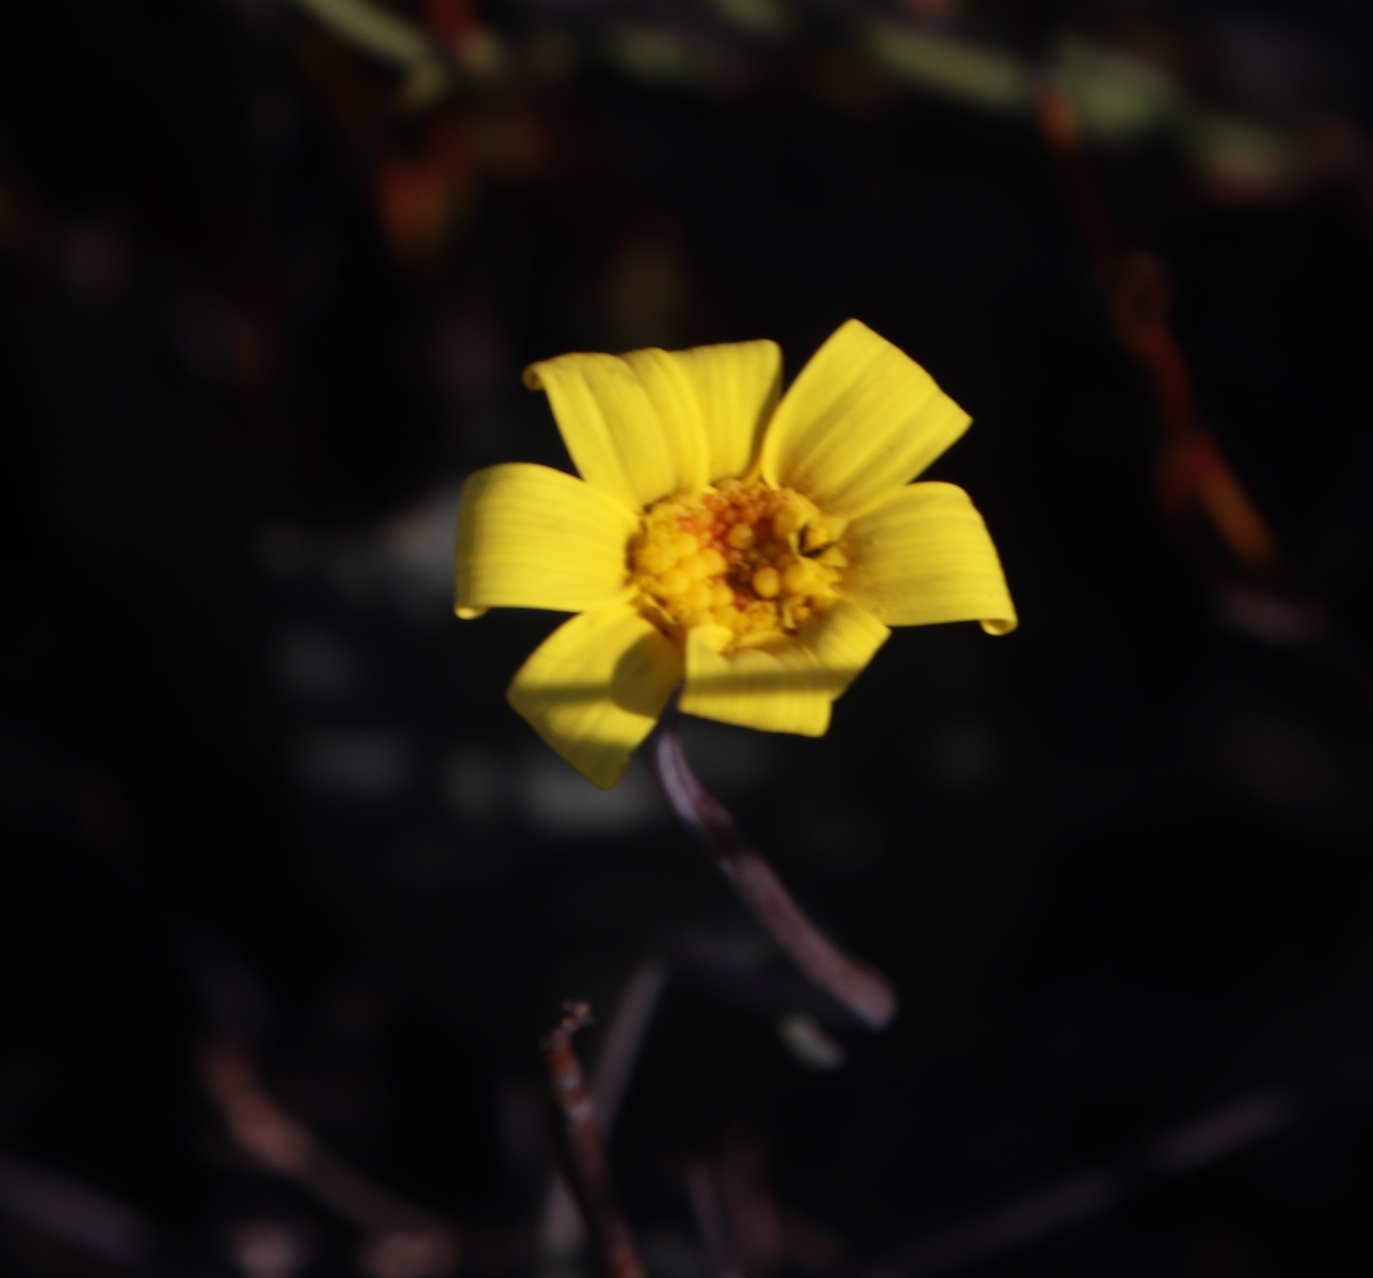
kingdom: Plantae
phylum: Tracheophyta
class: Magnoliopsida
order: Asterales
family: Asteraceae
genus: Othonna
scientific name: Othonna pinnata
